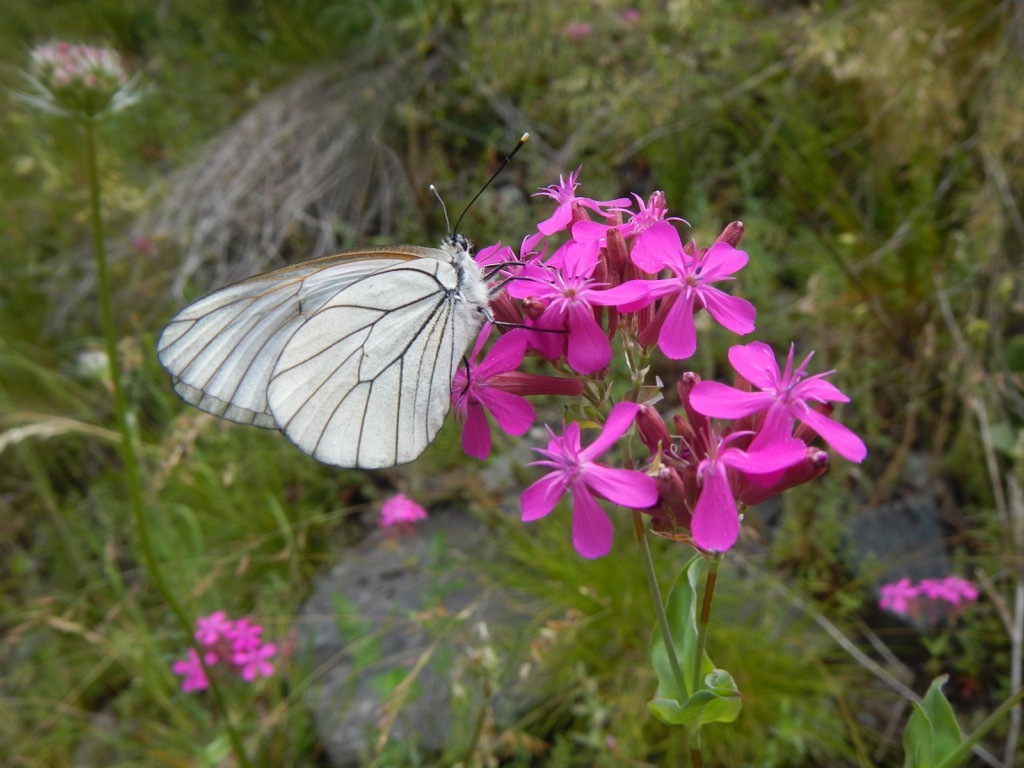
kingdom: Animalia
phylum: Arthropoda
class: Insecta
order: Lepidoptera
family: Pieridae
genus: Aporia
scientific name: Aporia crataegi
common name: Black-veined white
